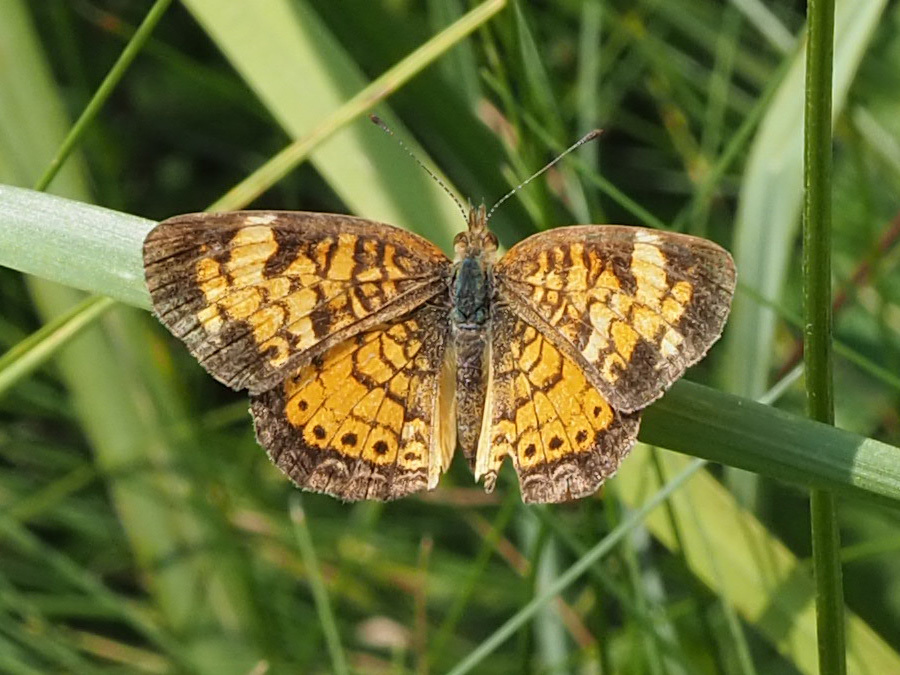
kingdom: Animalia
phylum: Arthropoda
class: Insecta
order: Lepidoptera
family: Nymphalidae
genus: Phyciodes
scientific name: Phyciodes tharos
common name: Pearl crescent
